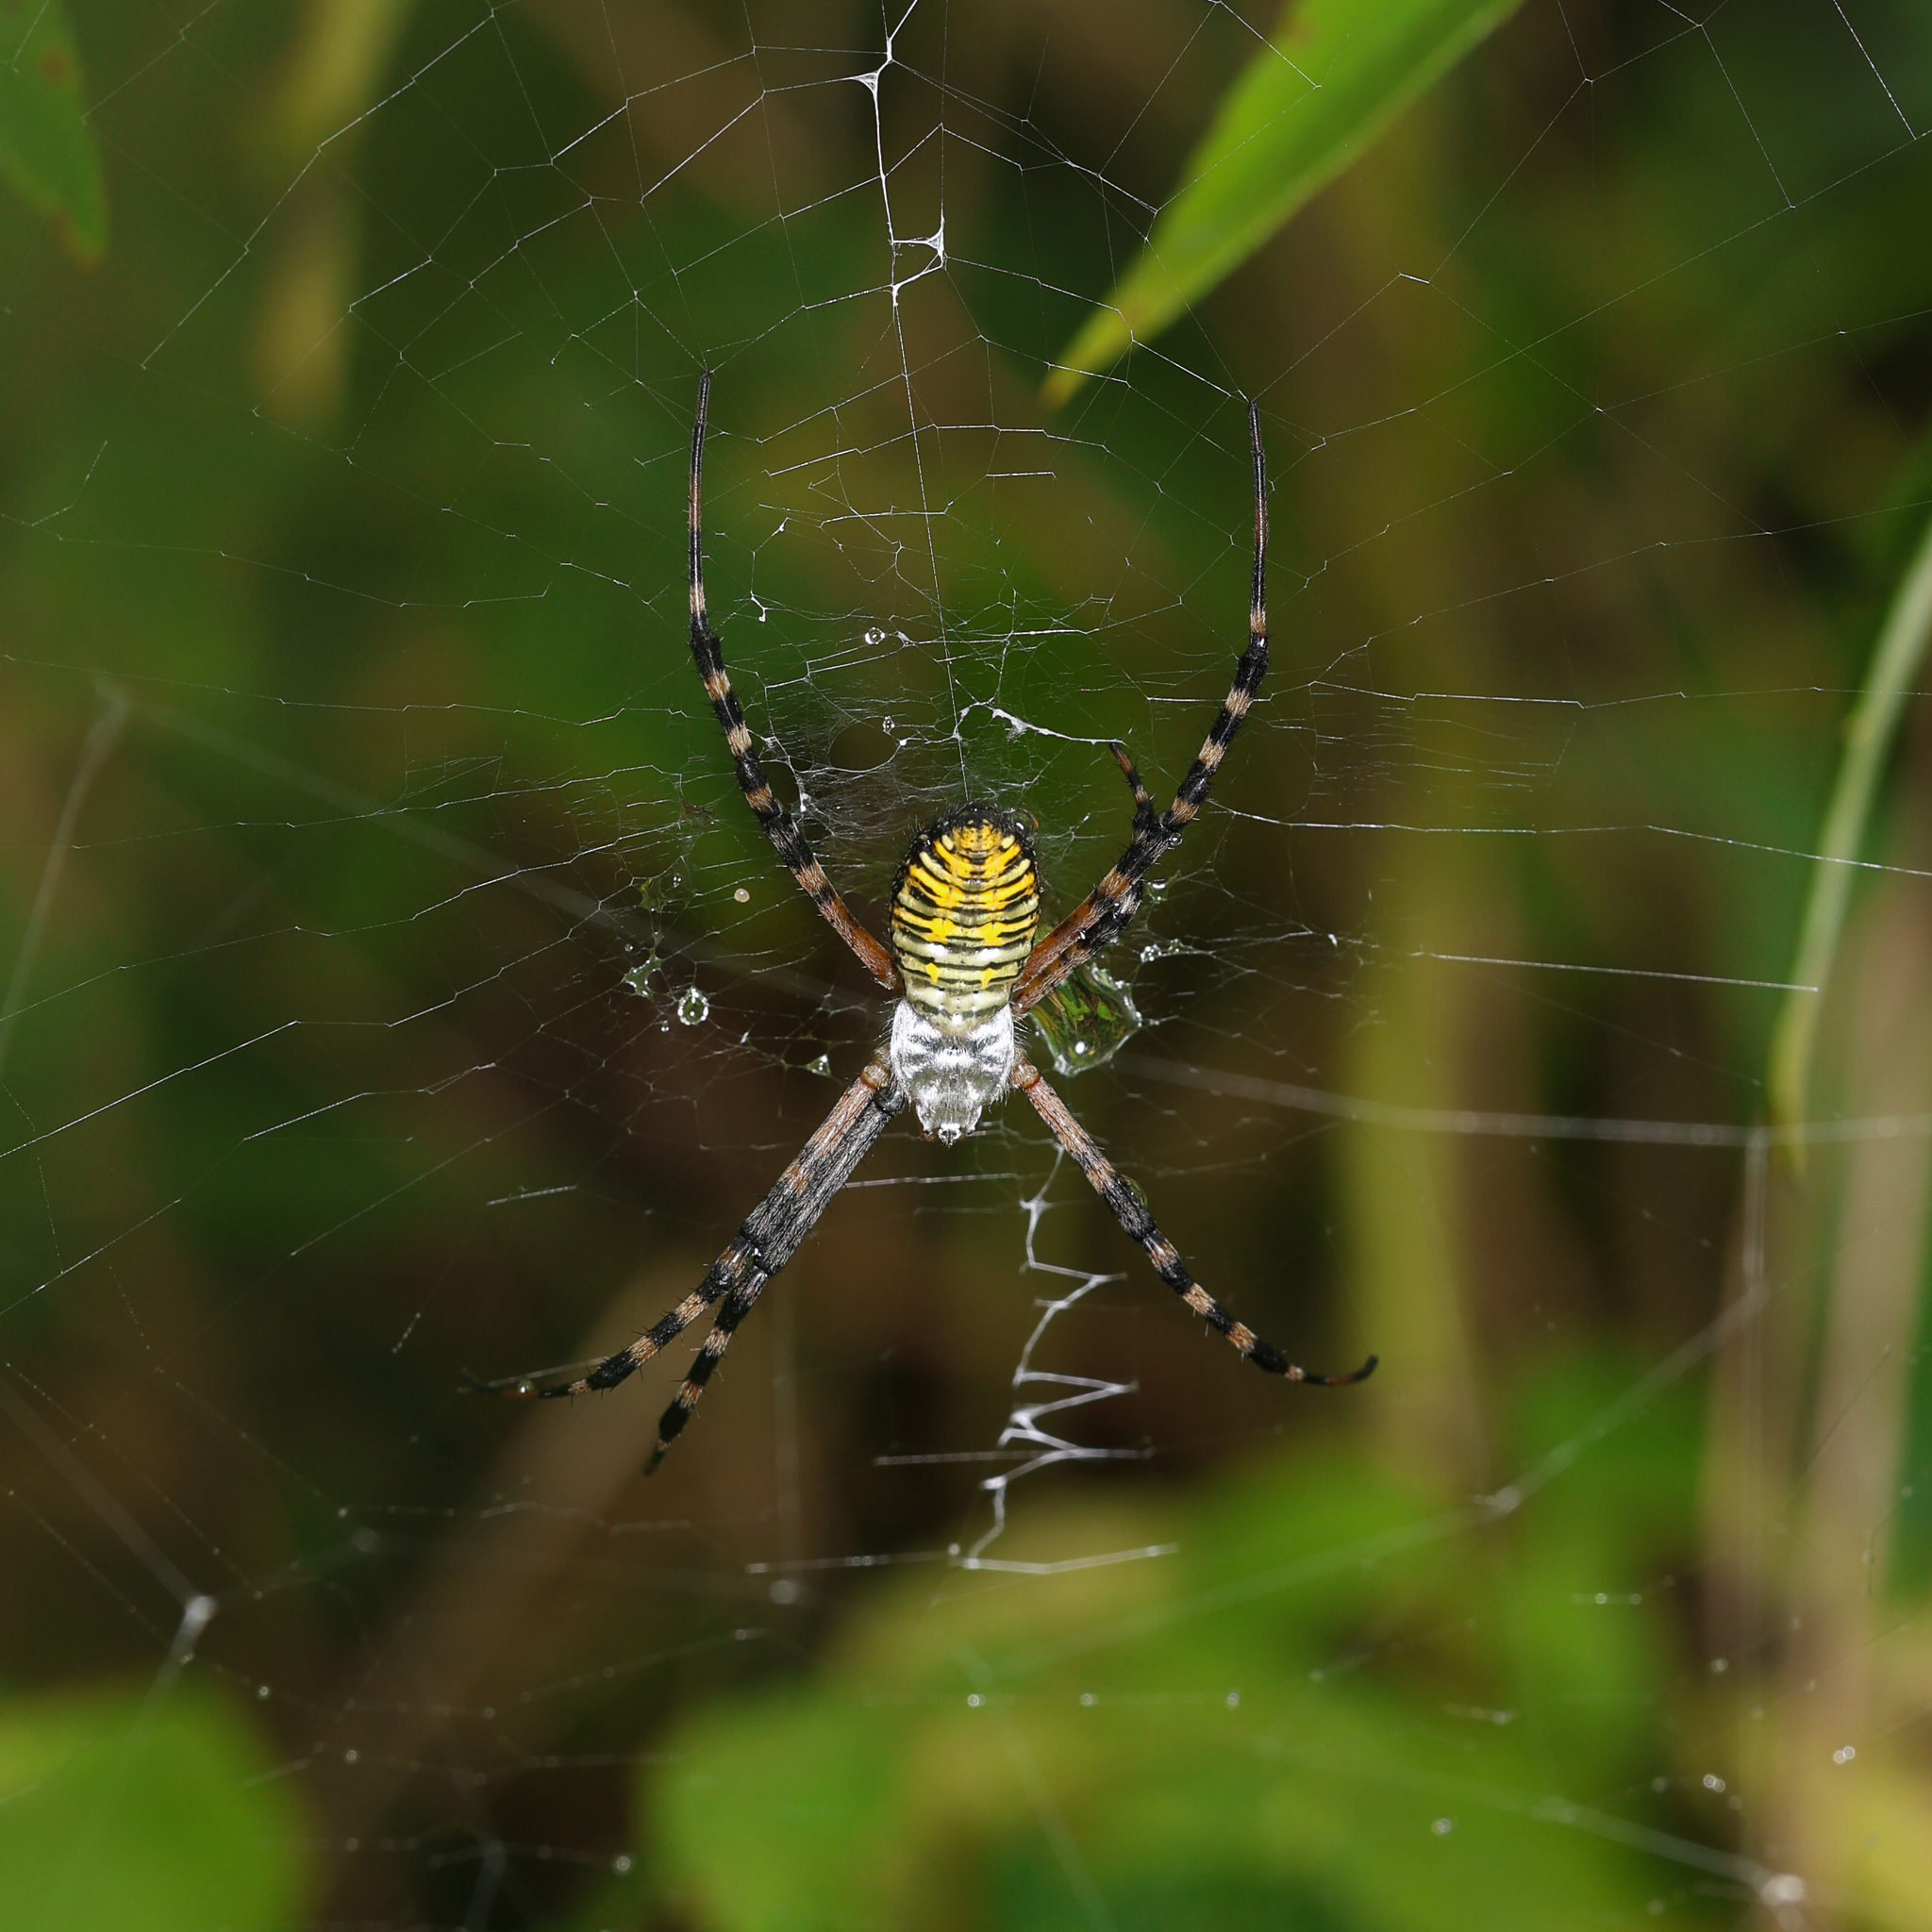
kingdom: Animalia
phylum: Arthropoda
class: Arachnida
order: Araneae
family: Araneidae
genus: Argiope
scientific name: Argiope trifasciata
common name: Banded garden spider
